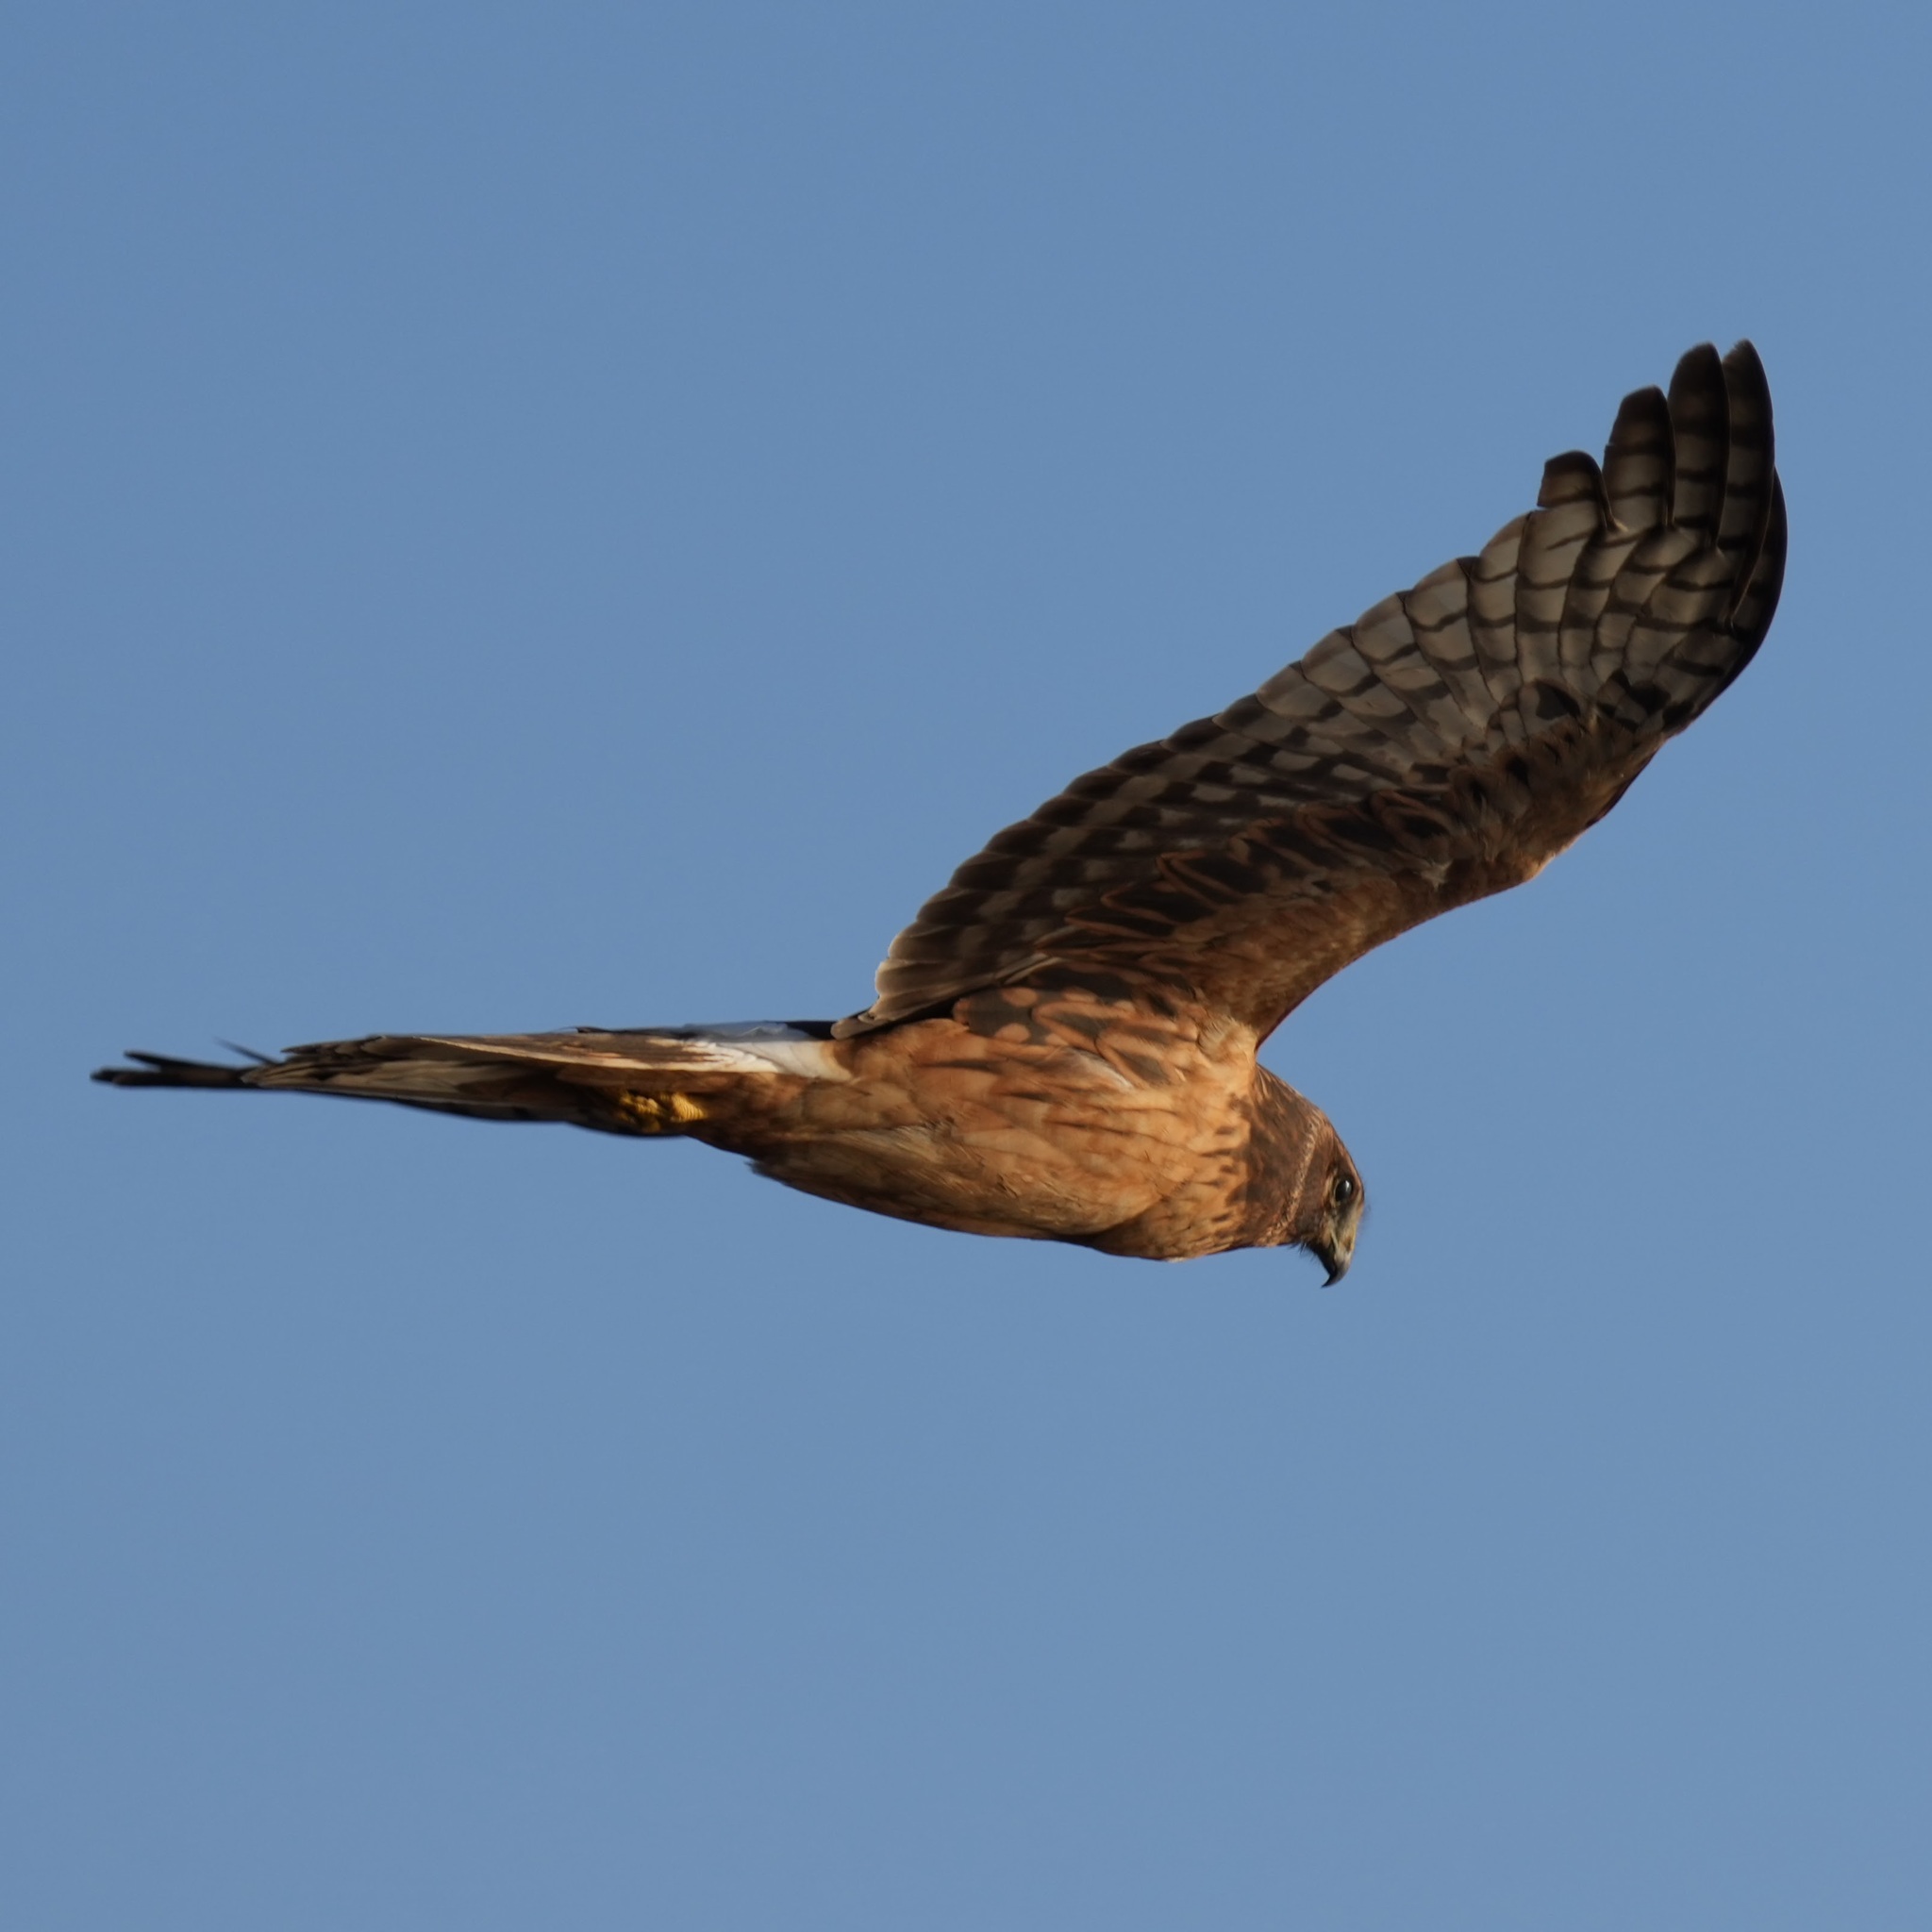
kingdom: Animalia
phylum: Chordata
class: Aves
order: Accipitriformes
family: Accipitridae
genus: Circus
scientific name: Circus cyaneus
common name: Hen harrier
